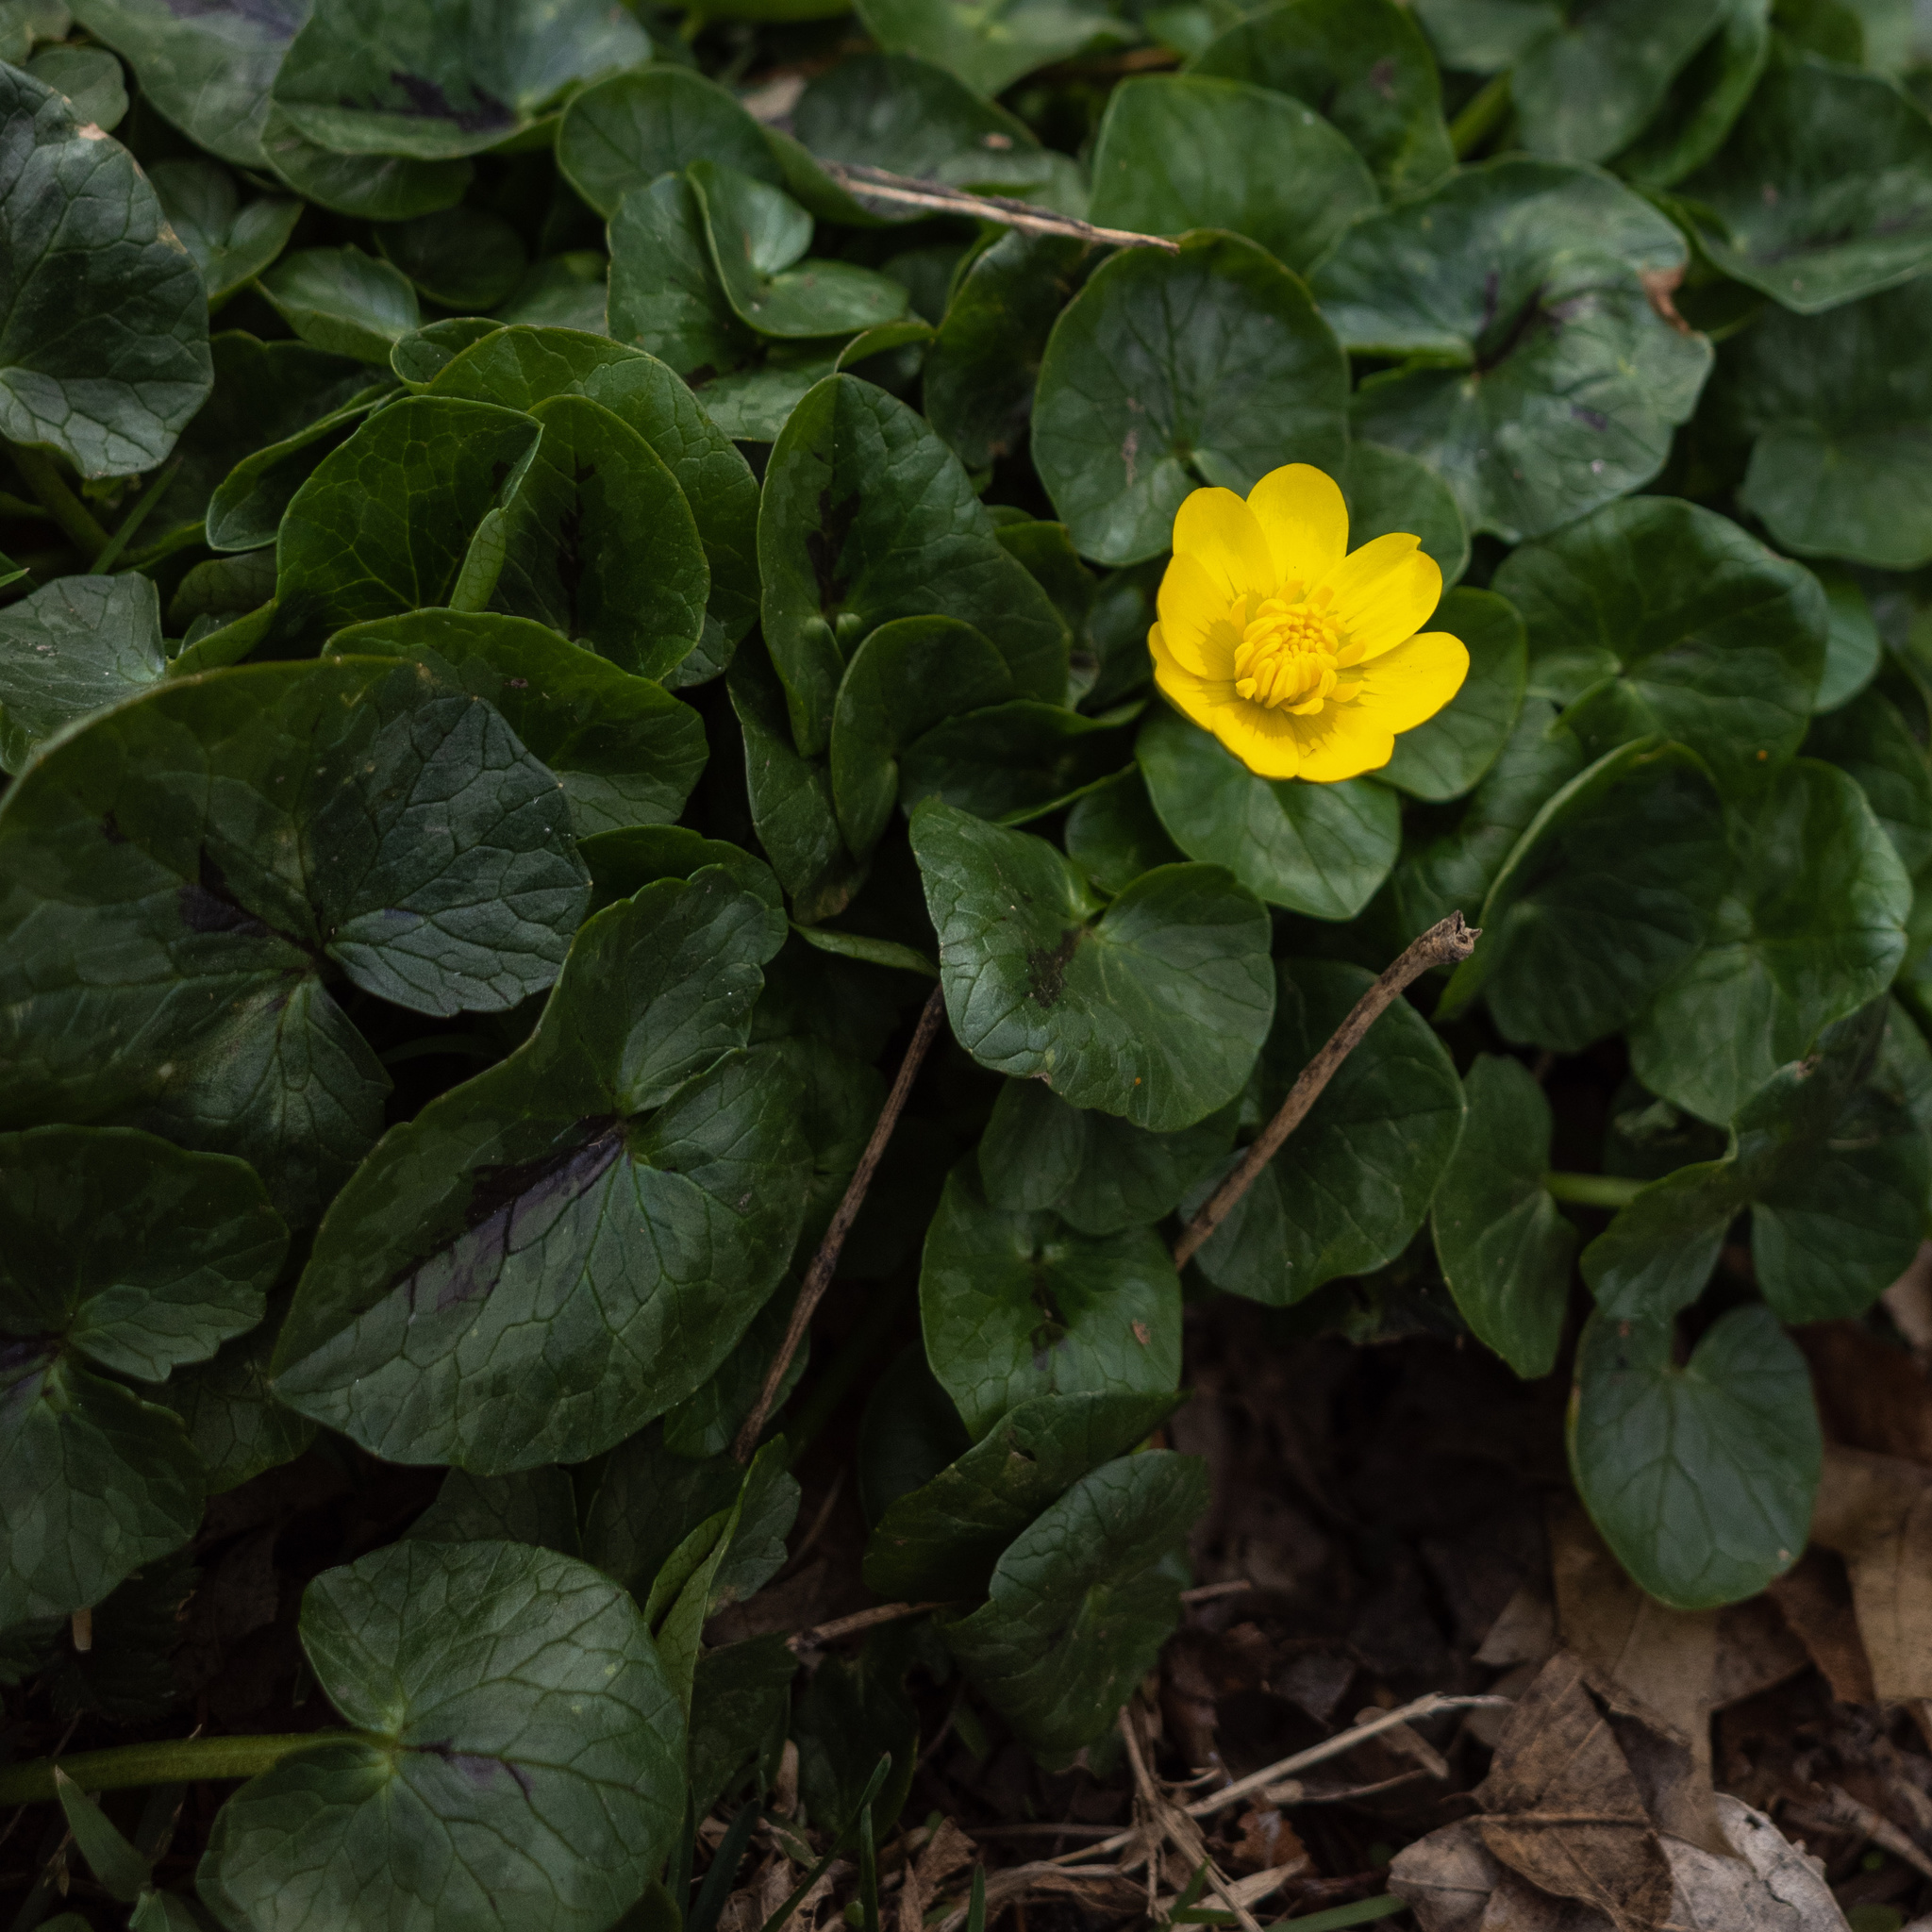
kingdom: Plantae
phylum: Tracheophyta
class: Magnoliopsida
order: Ranunculales
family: Ranunculaceae
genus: Ficaria
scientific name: Ficaria verna
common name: Lesser celandine
